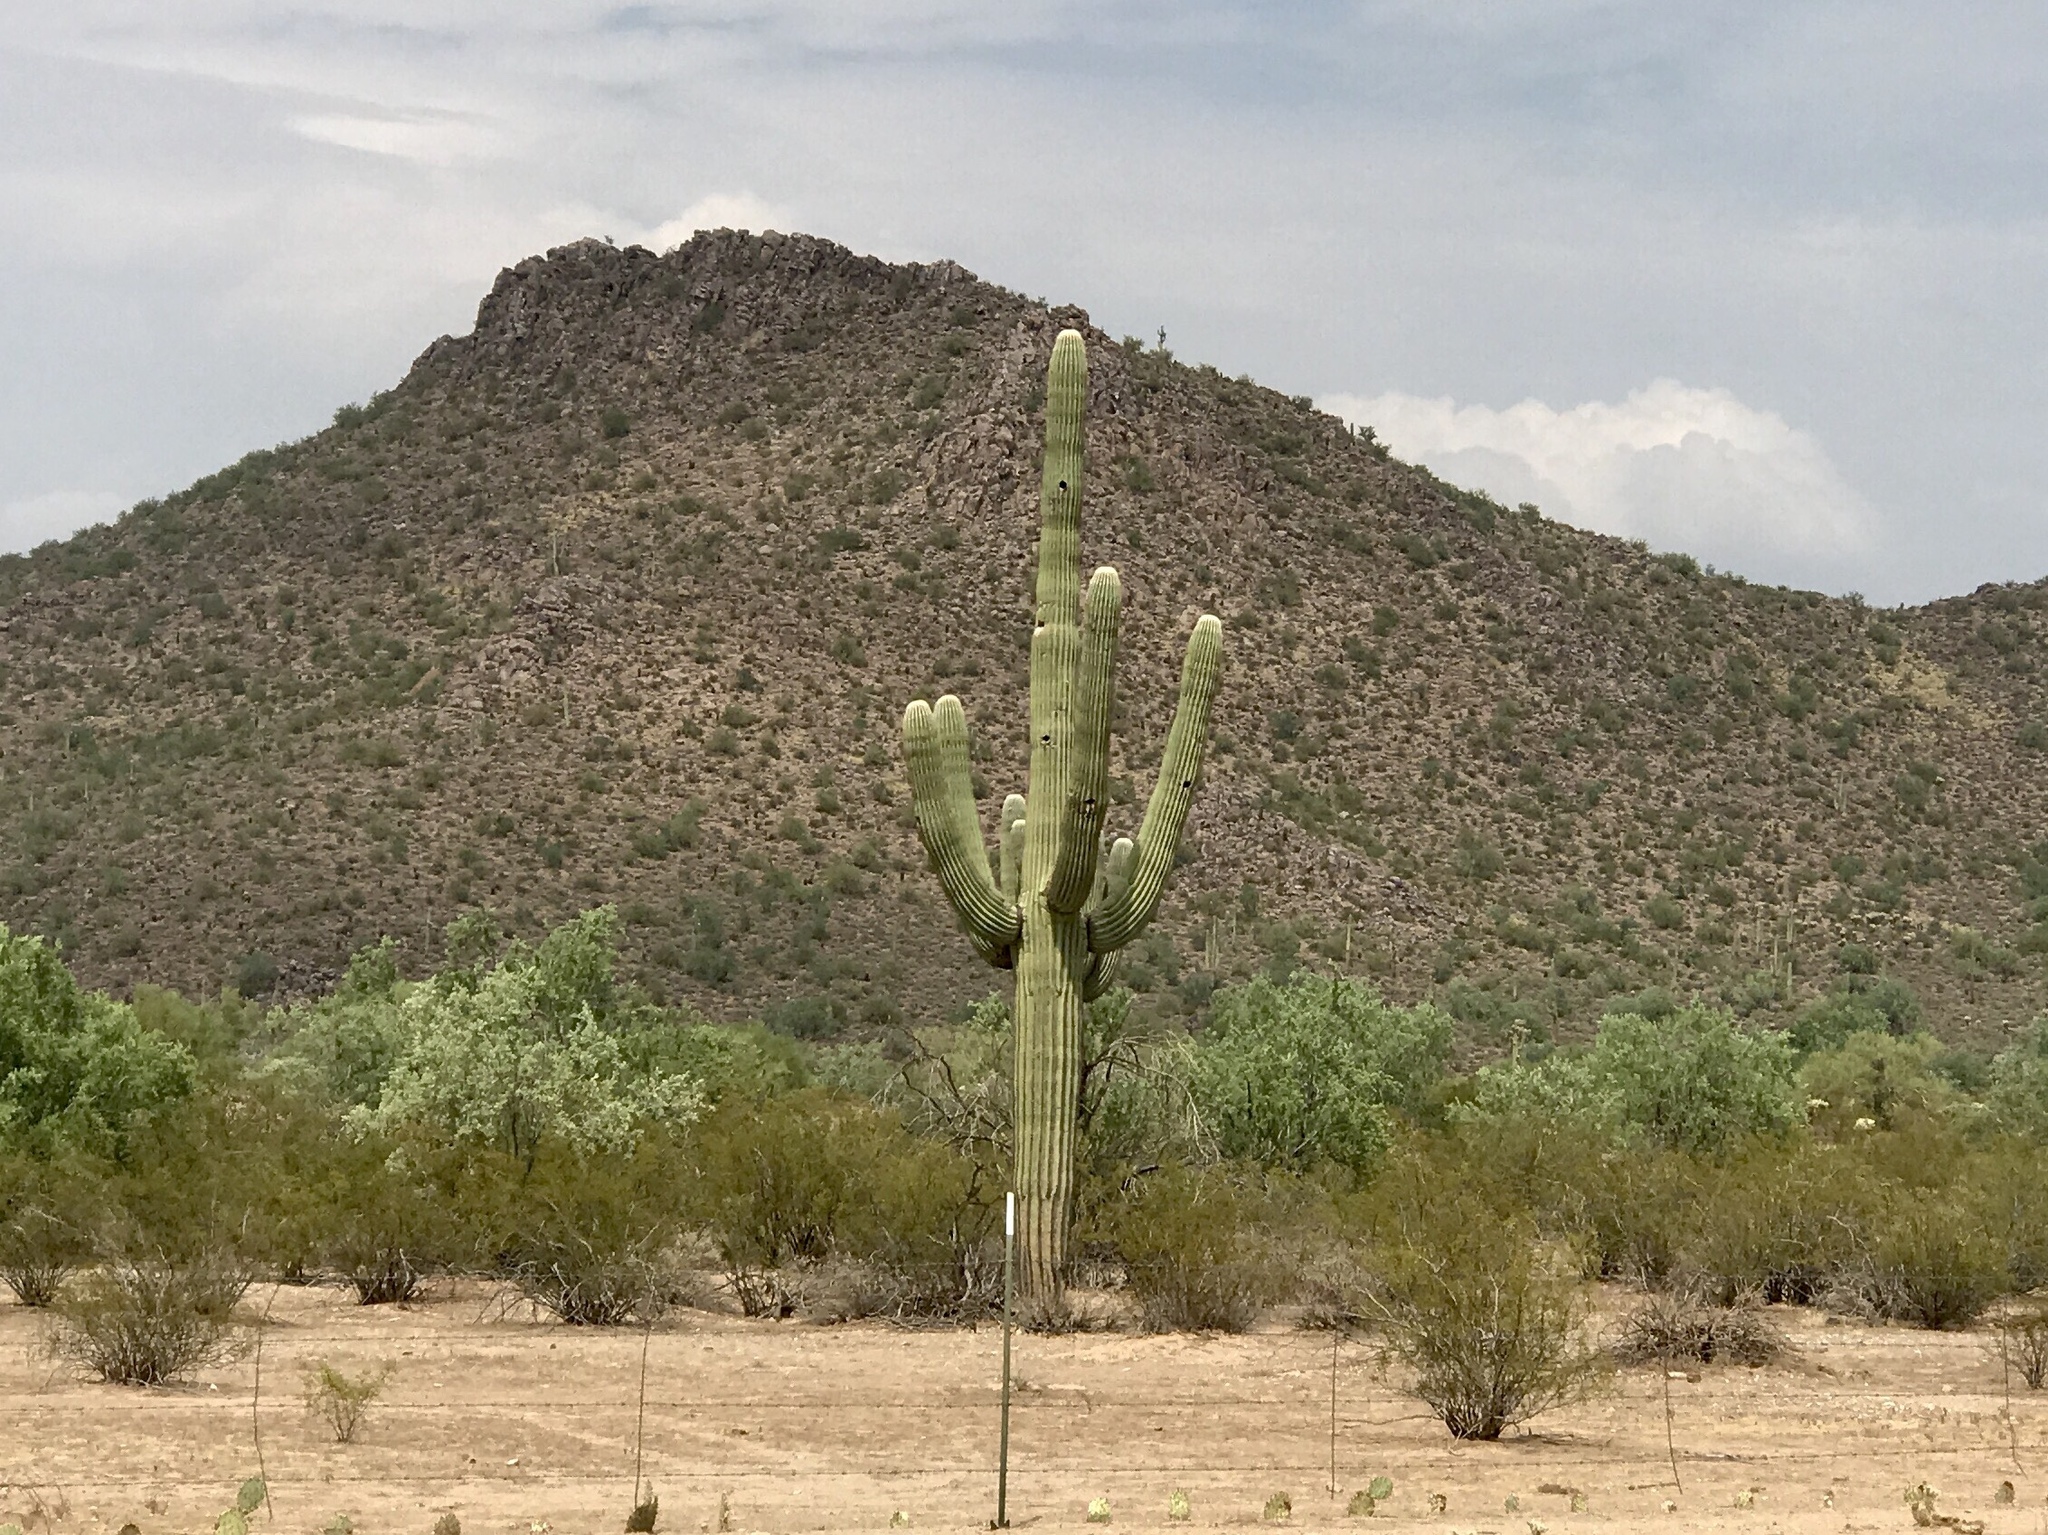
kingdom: Plantae
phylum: Tracheophyta
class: Magnoliopsida
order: Caryophyllales
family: Cactaceae
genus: Carnegiea
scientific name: Carnegiea gigantea
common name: Saguaro
